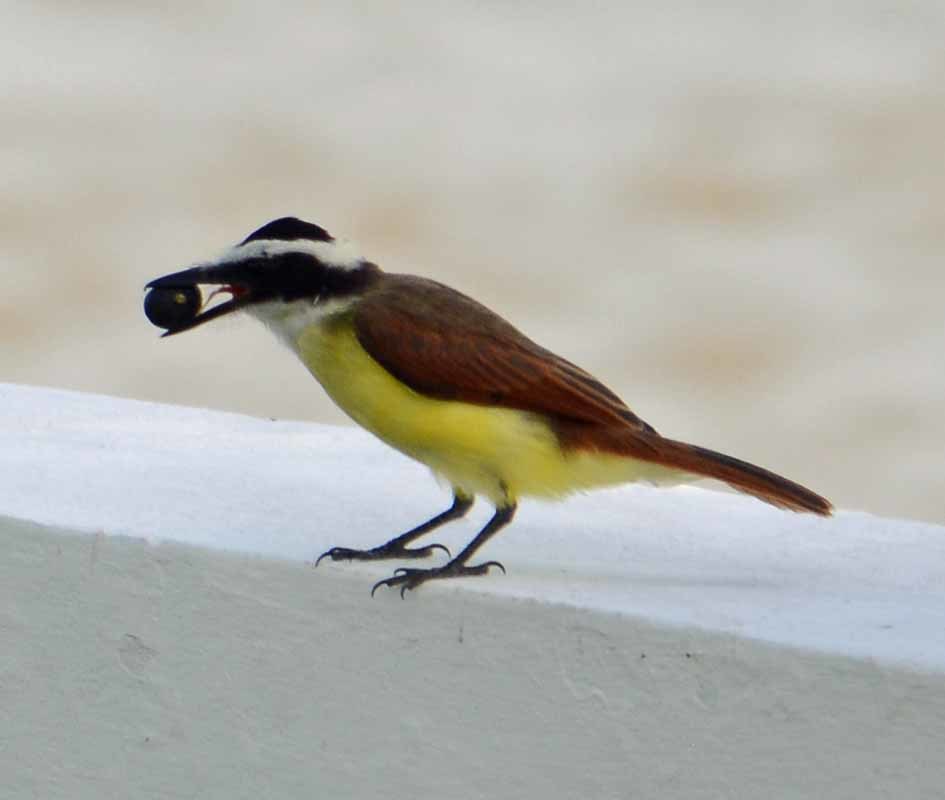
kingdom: Animalia
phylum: Chordata
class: Aves
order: Passeriformes
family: Tyrannidae
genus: Pitangus
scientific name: Pitangus sulphuratus
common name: Great kiskadee
